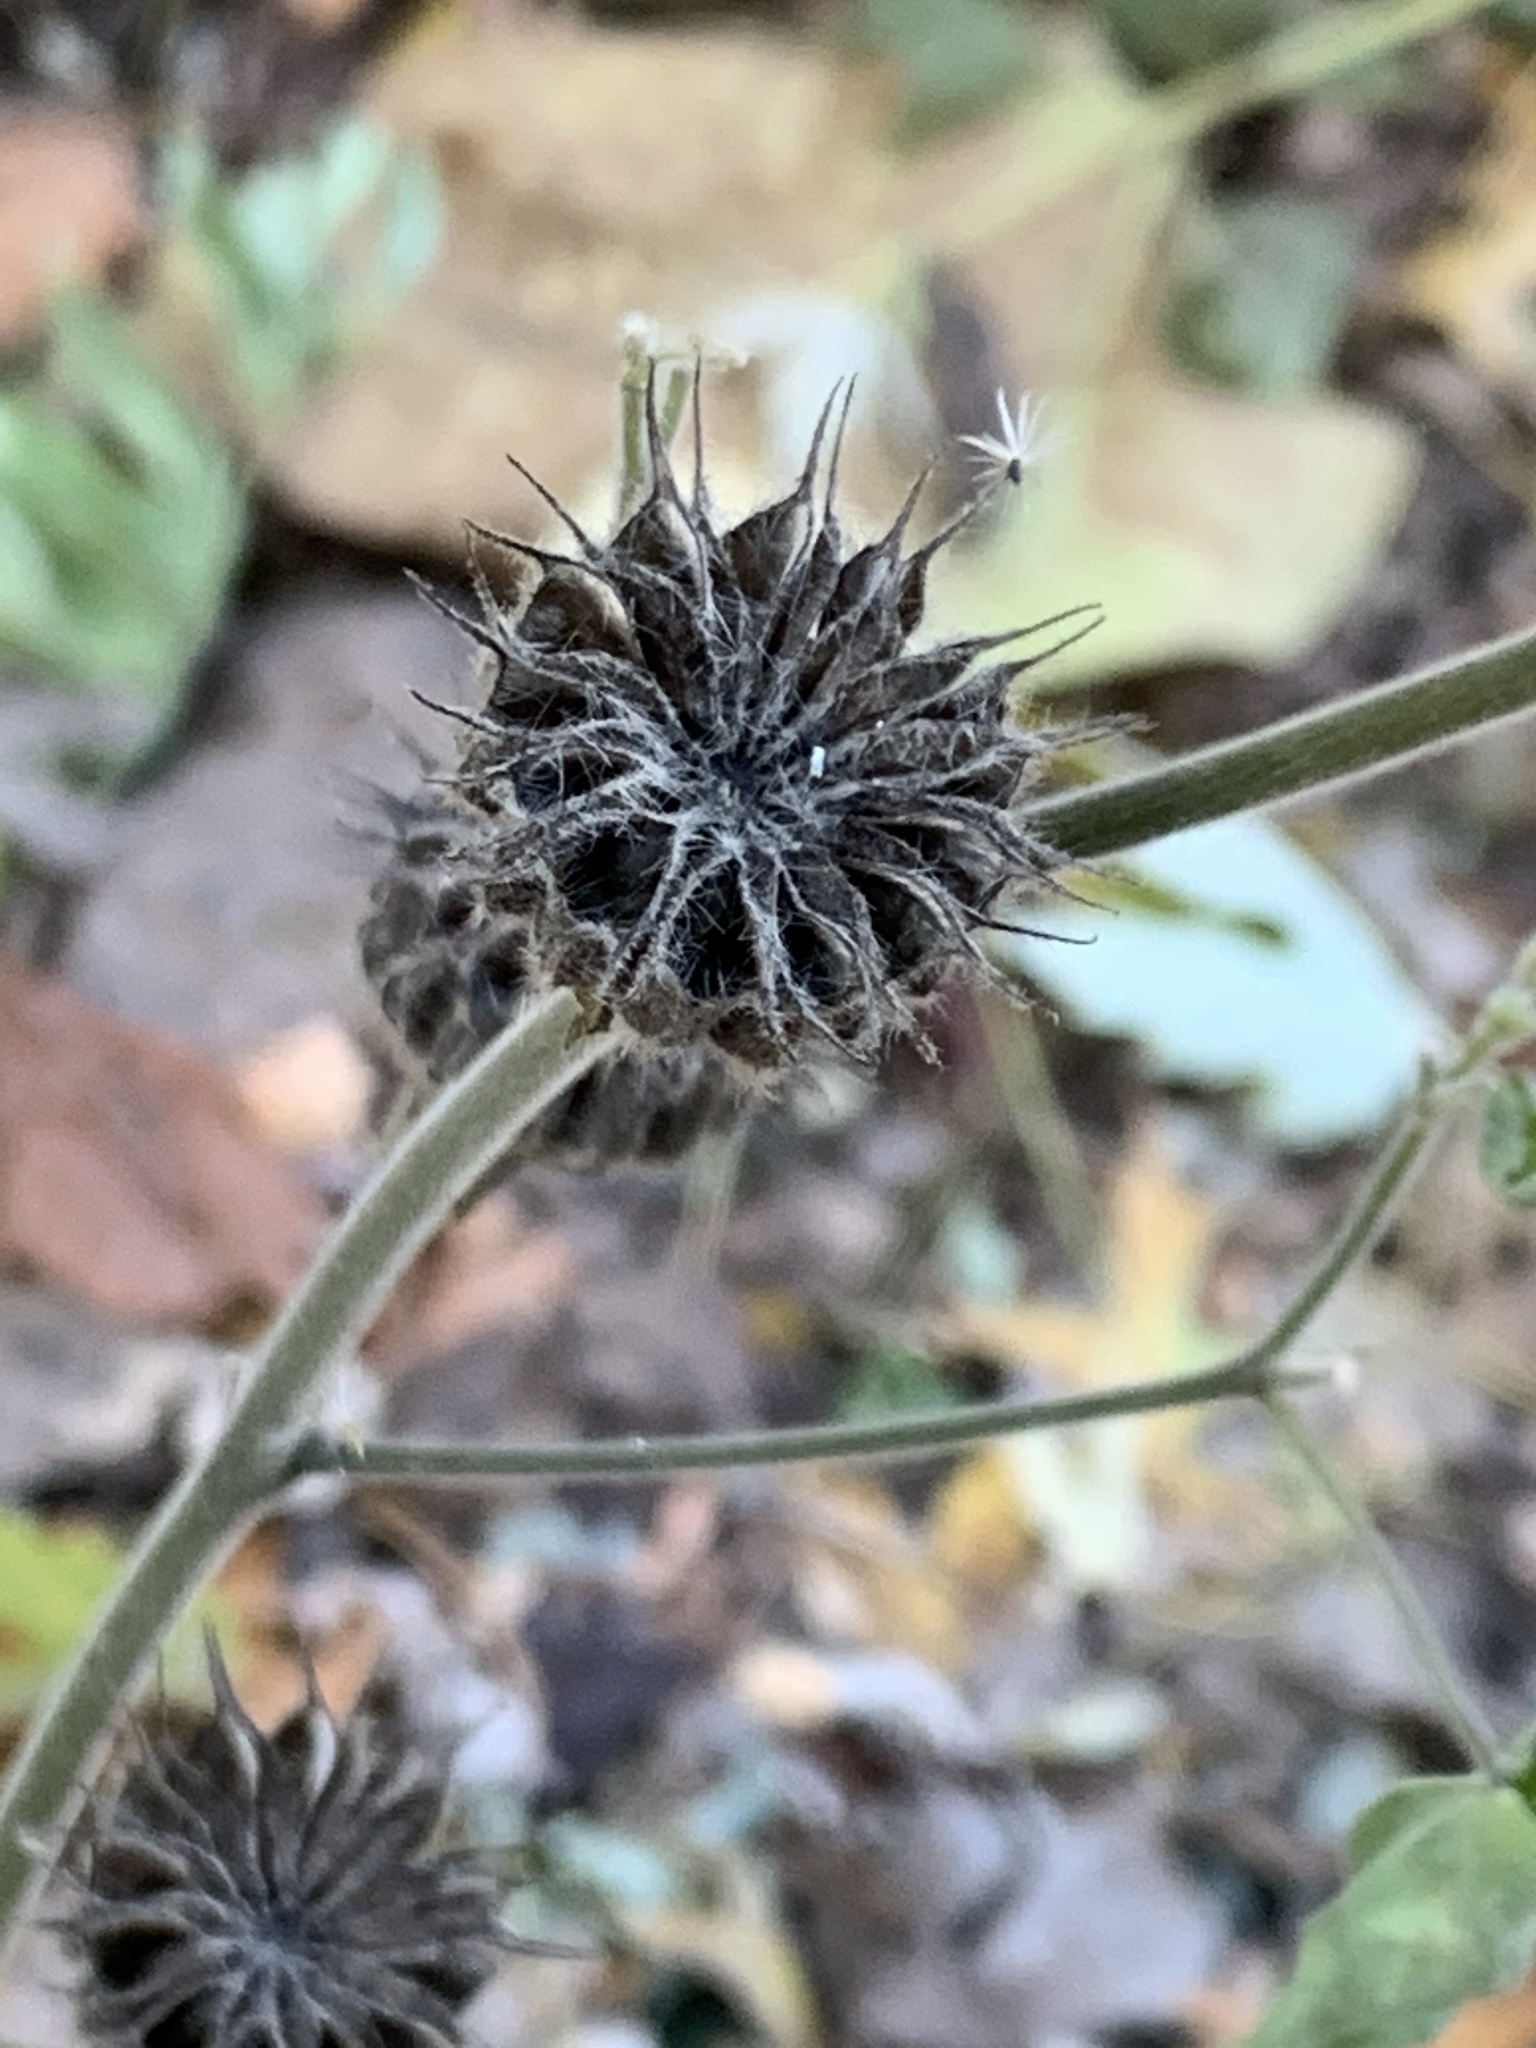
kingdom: Plantae
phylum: Tracheophyta
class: Magnoliopsida
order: Malvales
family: Malvaceae
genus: Abutilon
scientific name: Abutilon theophrasti
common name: Velvetleaf
